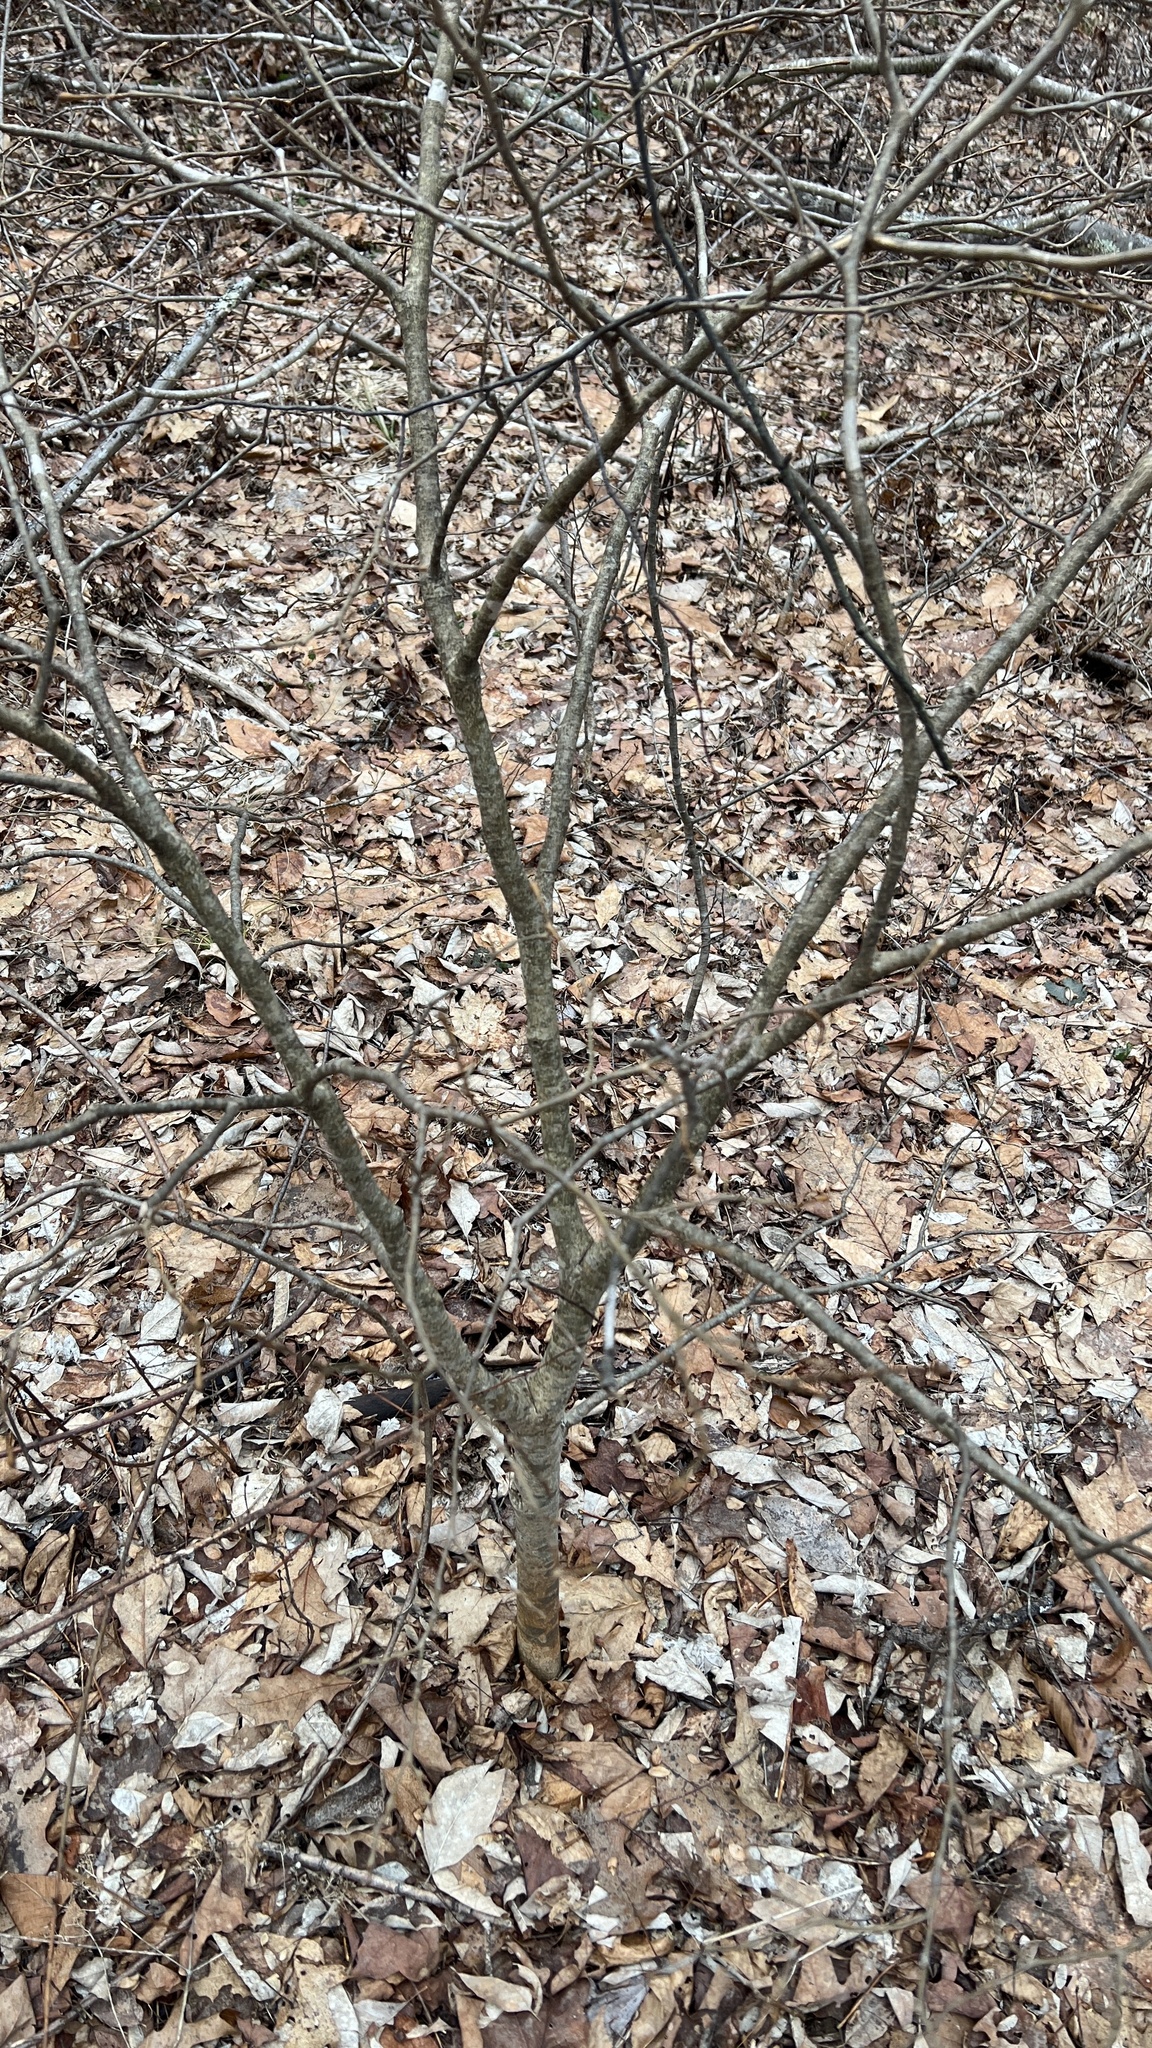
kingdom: Plantae
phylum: Tracheophyta
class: Magnoliopsida
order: Malvales
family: Thymelaeaceae
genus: Dirca
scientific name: Dirca palustris
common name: Leatherwood
